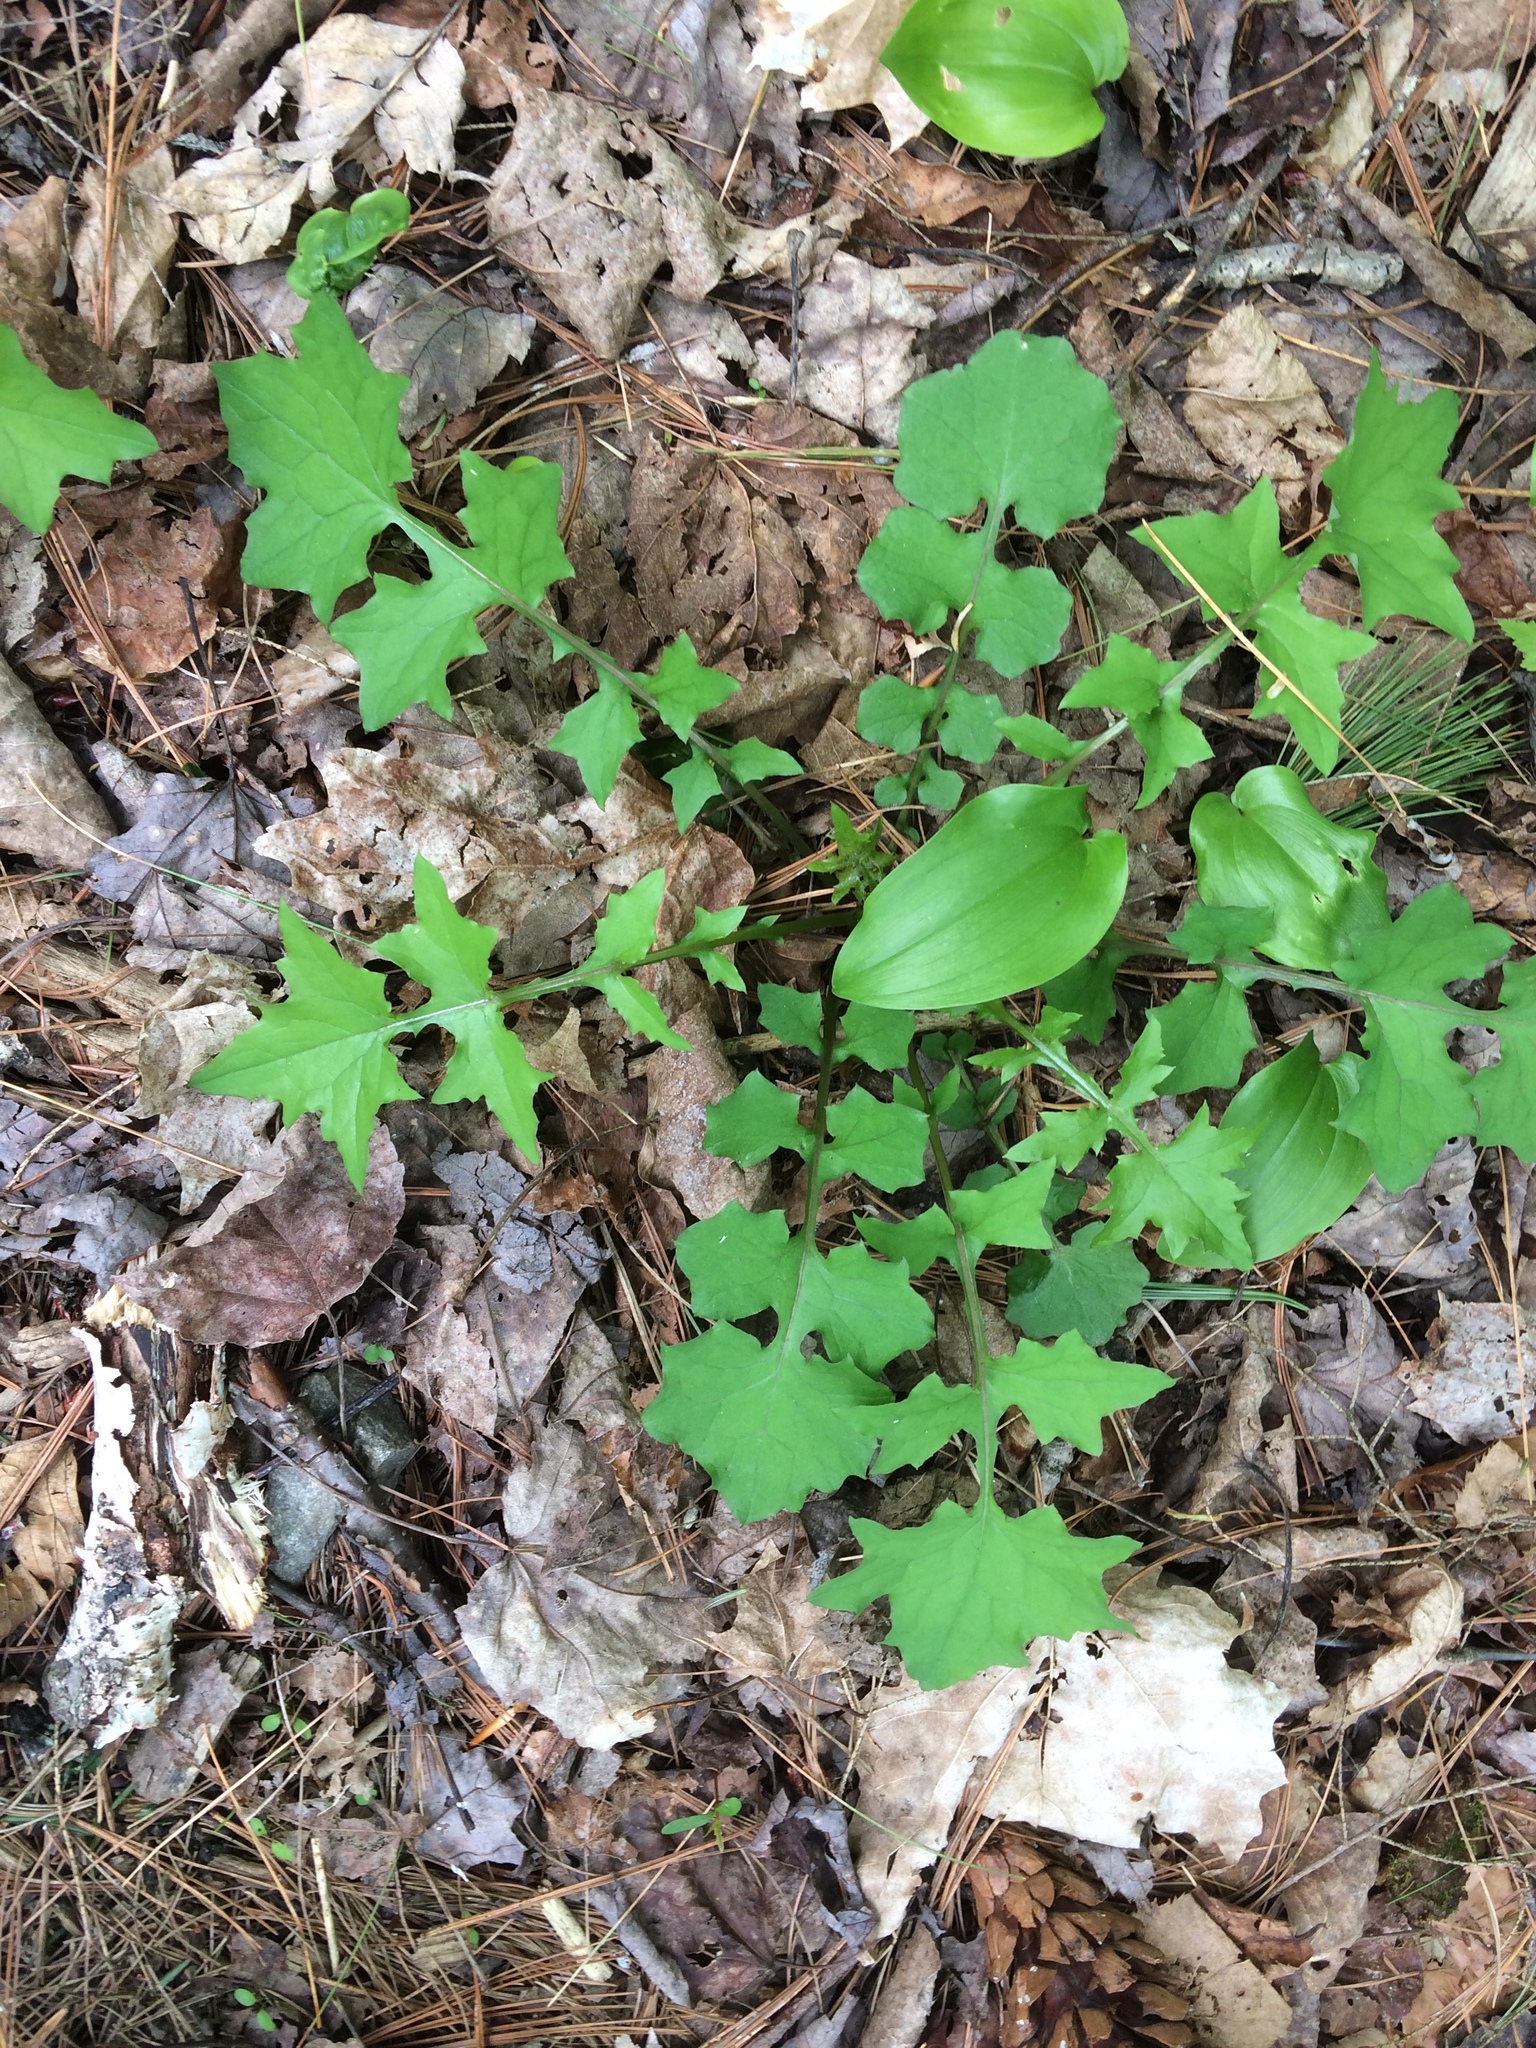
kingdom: Plantae
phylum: Tracheophyta
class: Magnoliopsida
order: Asterales
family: Asteraceae
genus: Mycelis
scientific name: Mycelis muralis
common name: Wall lettuce
